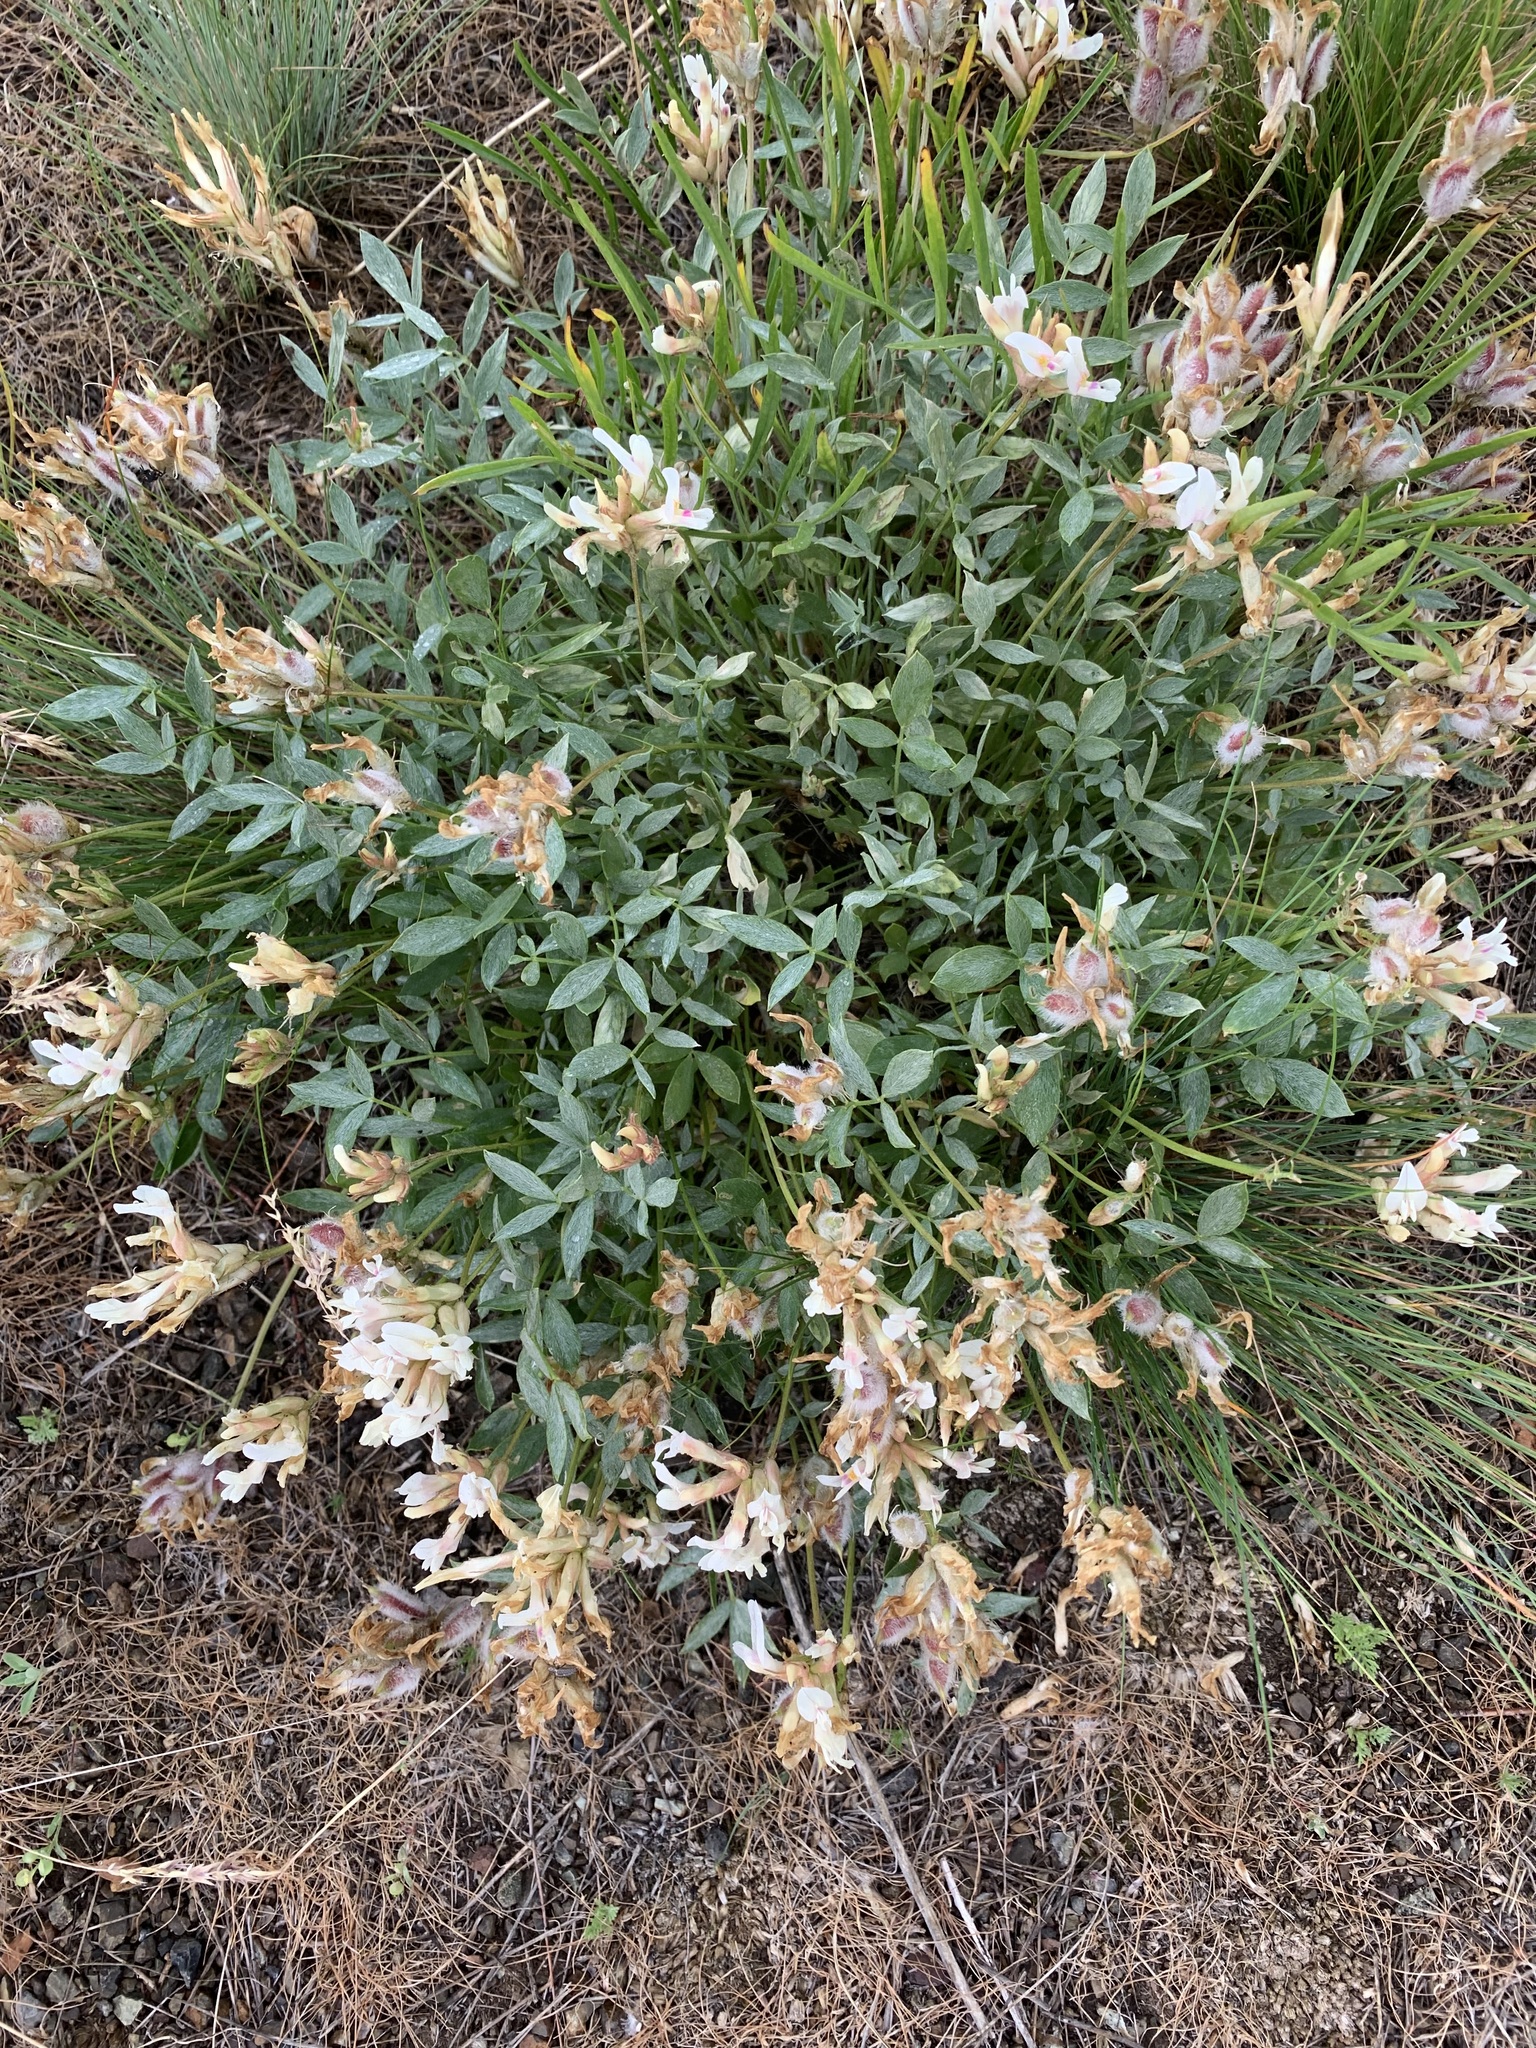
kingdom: Plantae
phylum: Tracheophyta
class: Magnoliopsida
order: Fabales
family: Fabaceae
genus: Astragalus
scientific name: Astragalus tergeminus
